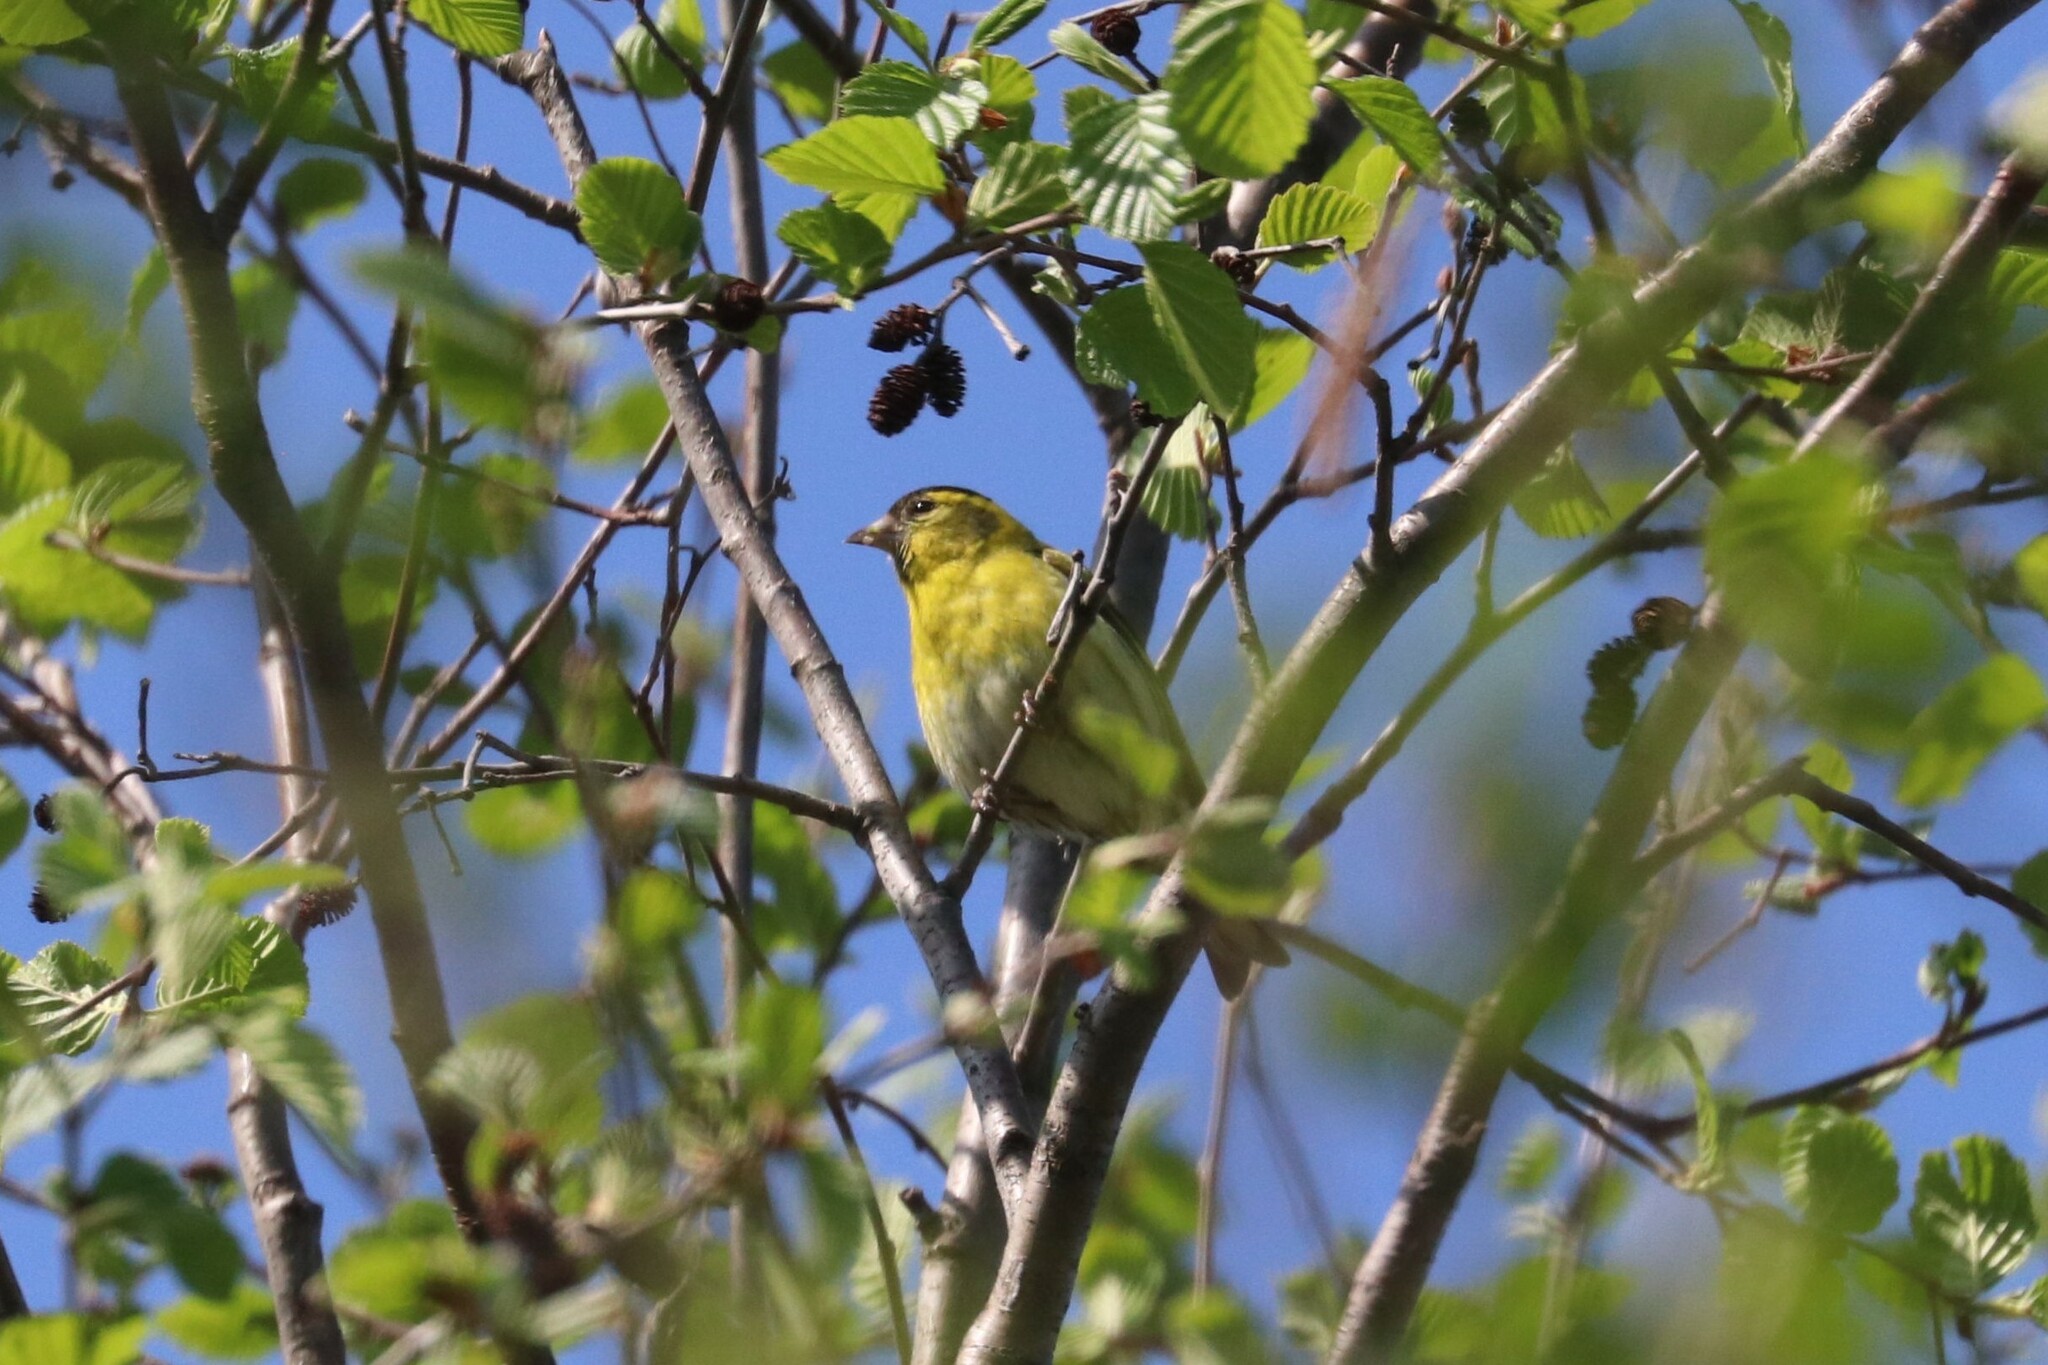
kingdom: Animalia
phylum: Chordata
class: Aves
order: Passeriformes
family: Fringillidae
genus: Spinus
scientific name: Spinus spinus
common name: Eurasian siskin
